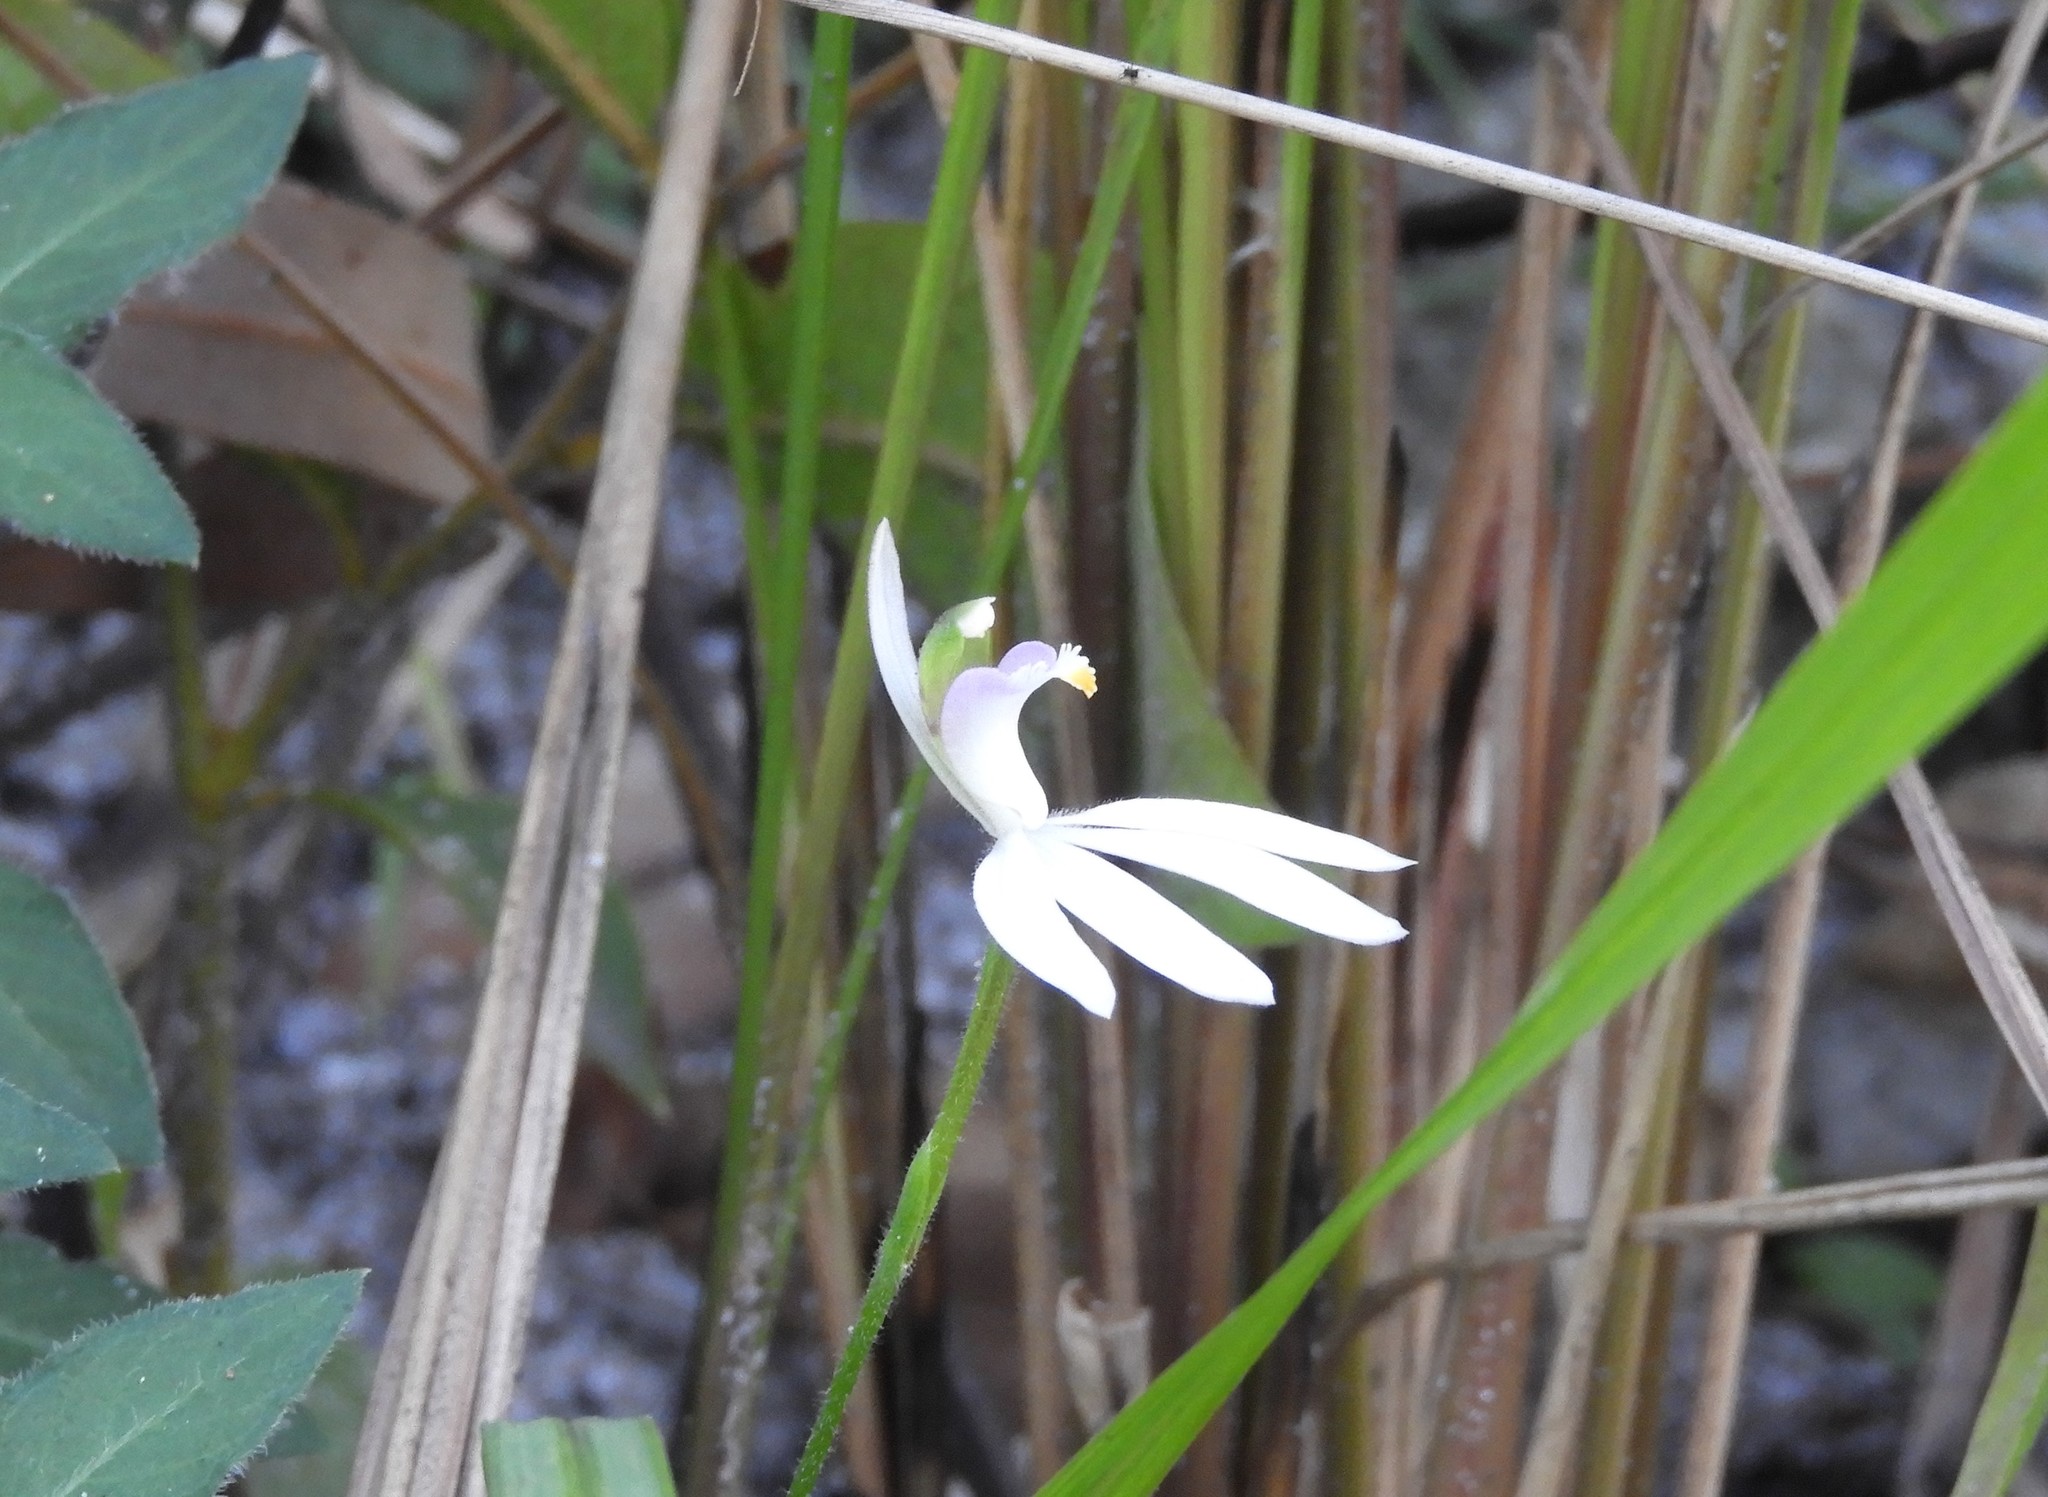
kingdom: Plantae
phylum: Tracheophyta
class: Liliopsida
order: Asparagales
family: Orchidaceae
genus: Caladenia
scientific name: Caladenia picta
